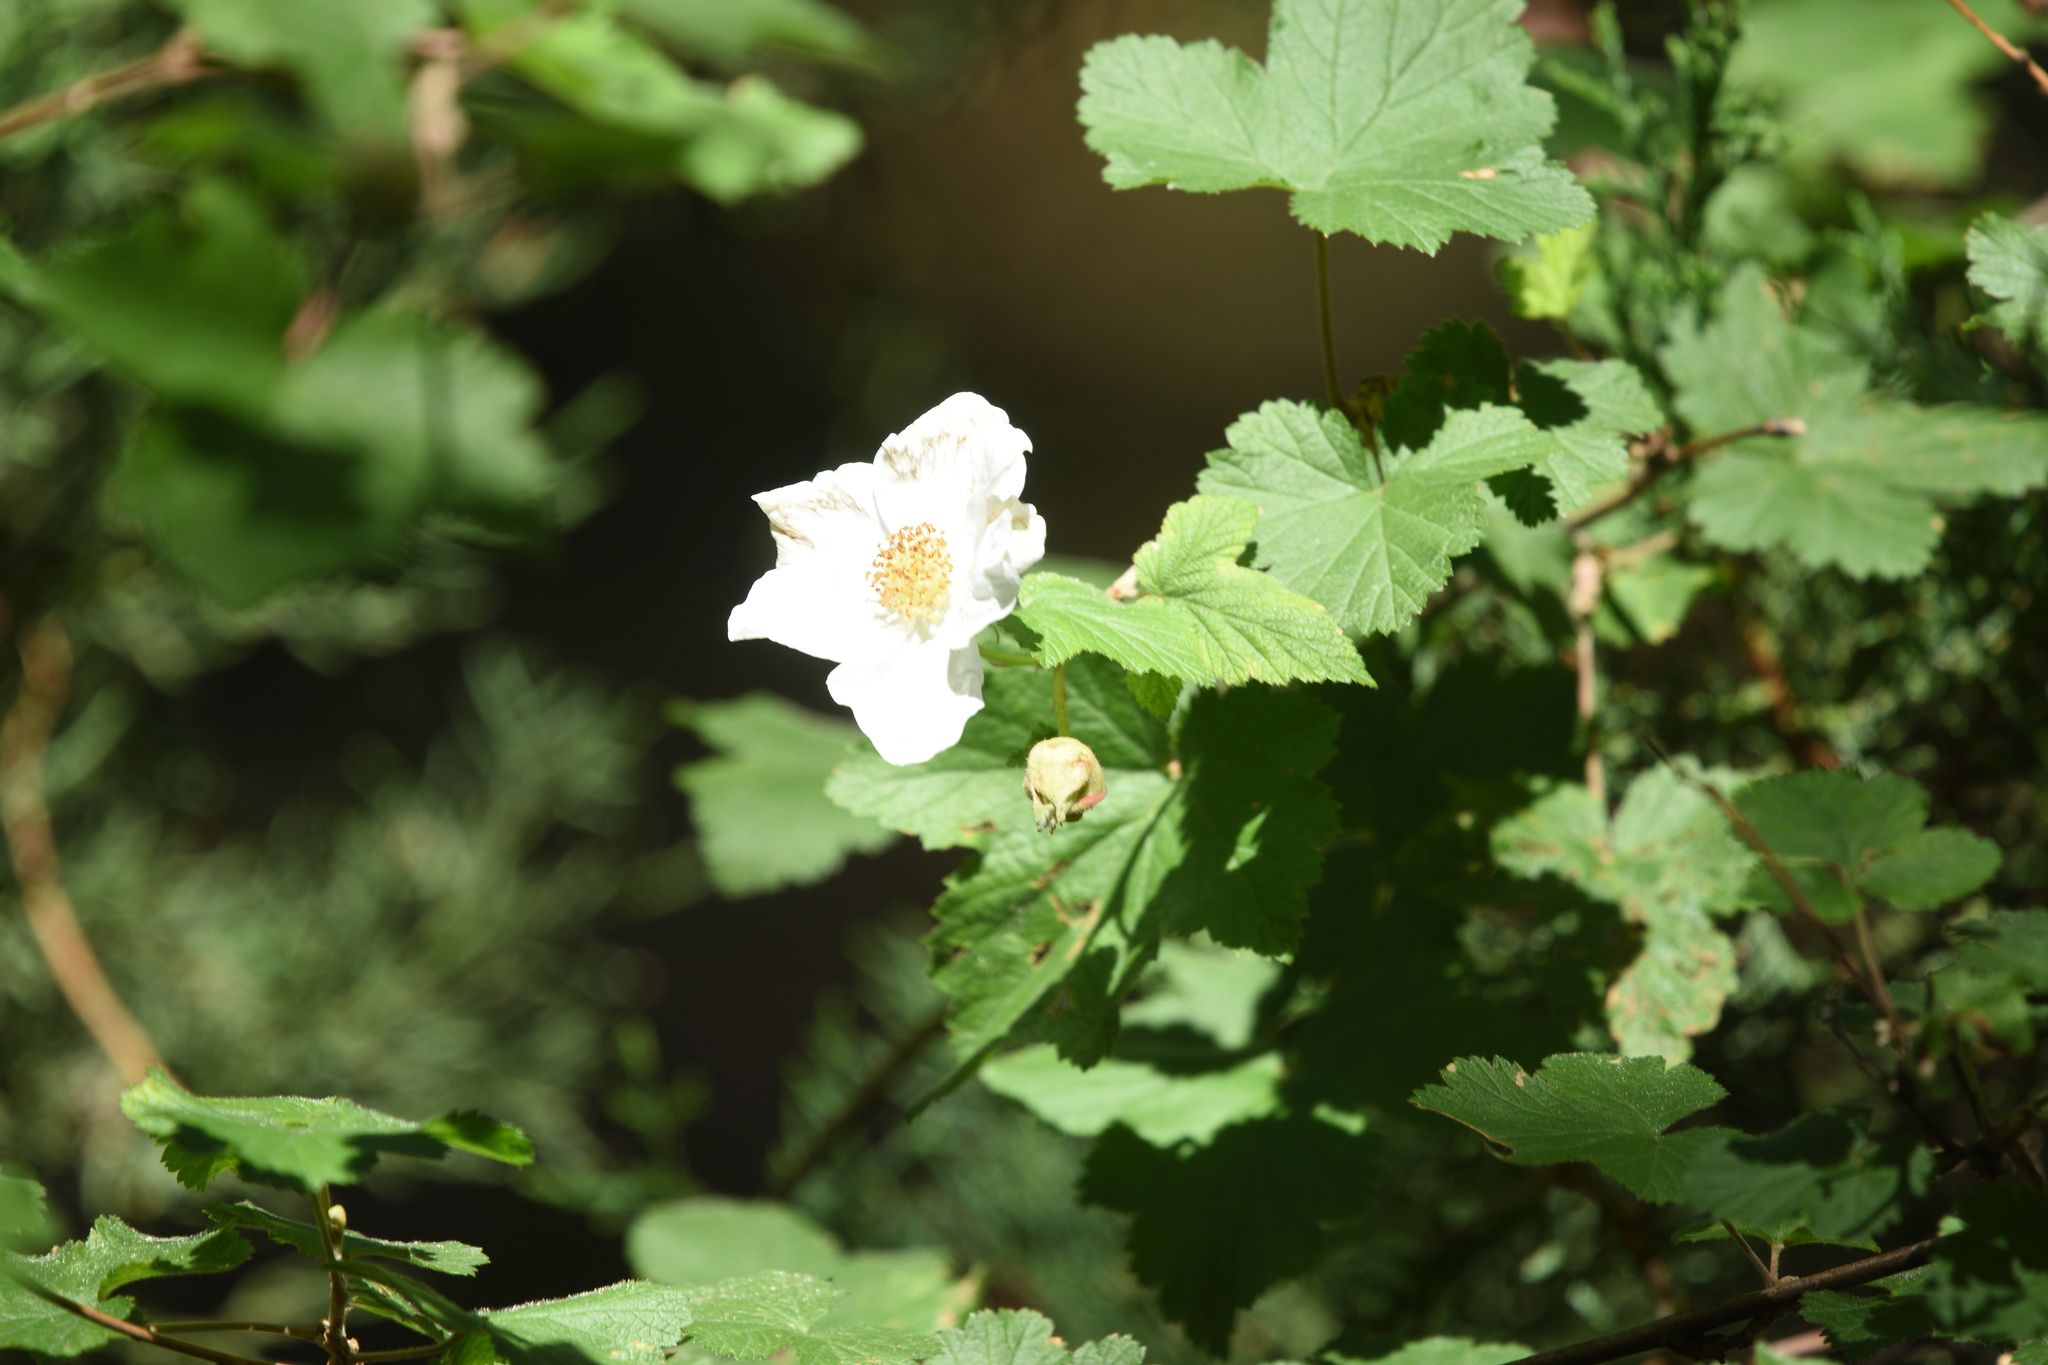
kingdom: Plantae
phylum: Tracheophyta
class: Magnoliopsida
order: Rosales
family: Rosaceae
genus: Rubus
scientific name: Rubus neomexicanus
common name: New mexico raspberry
